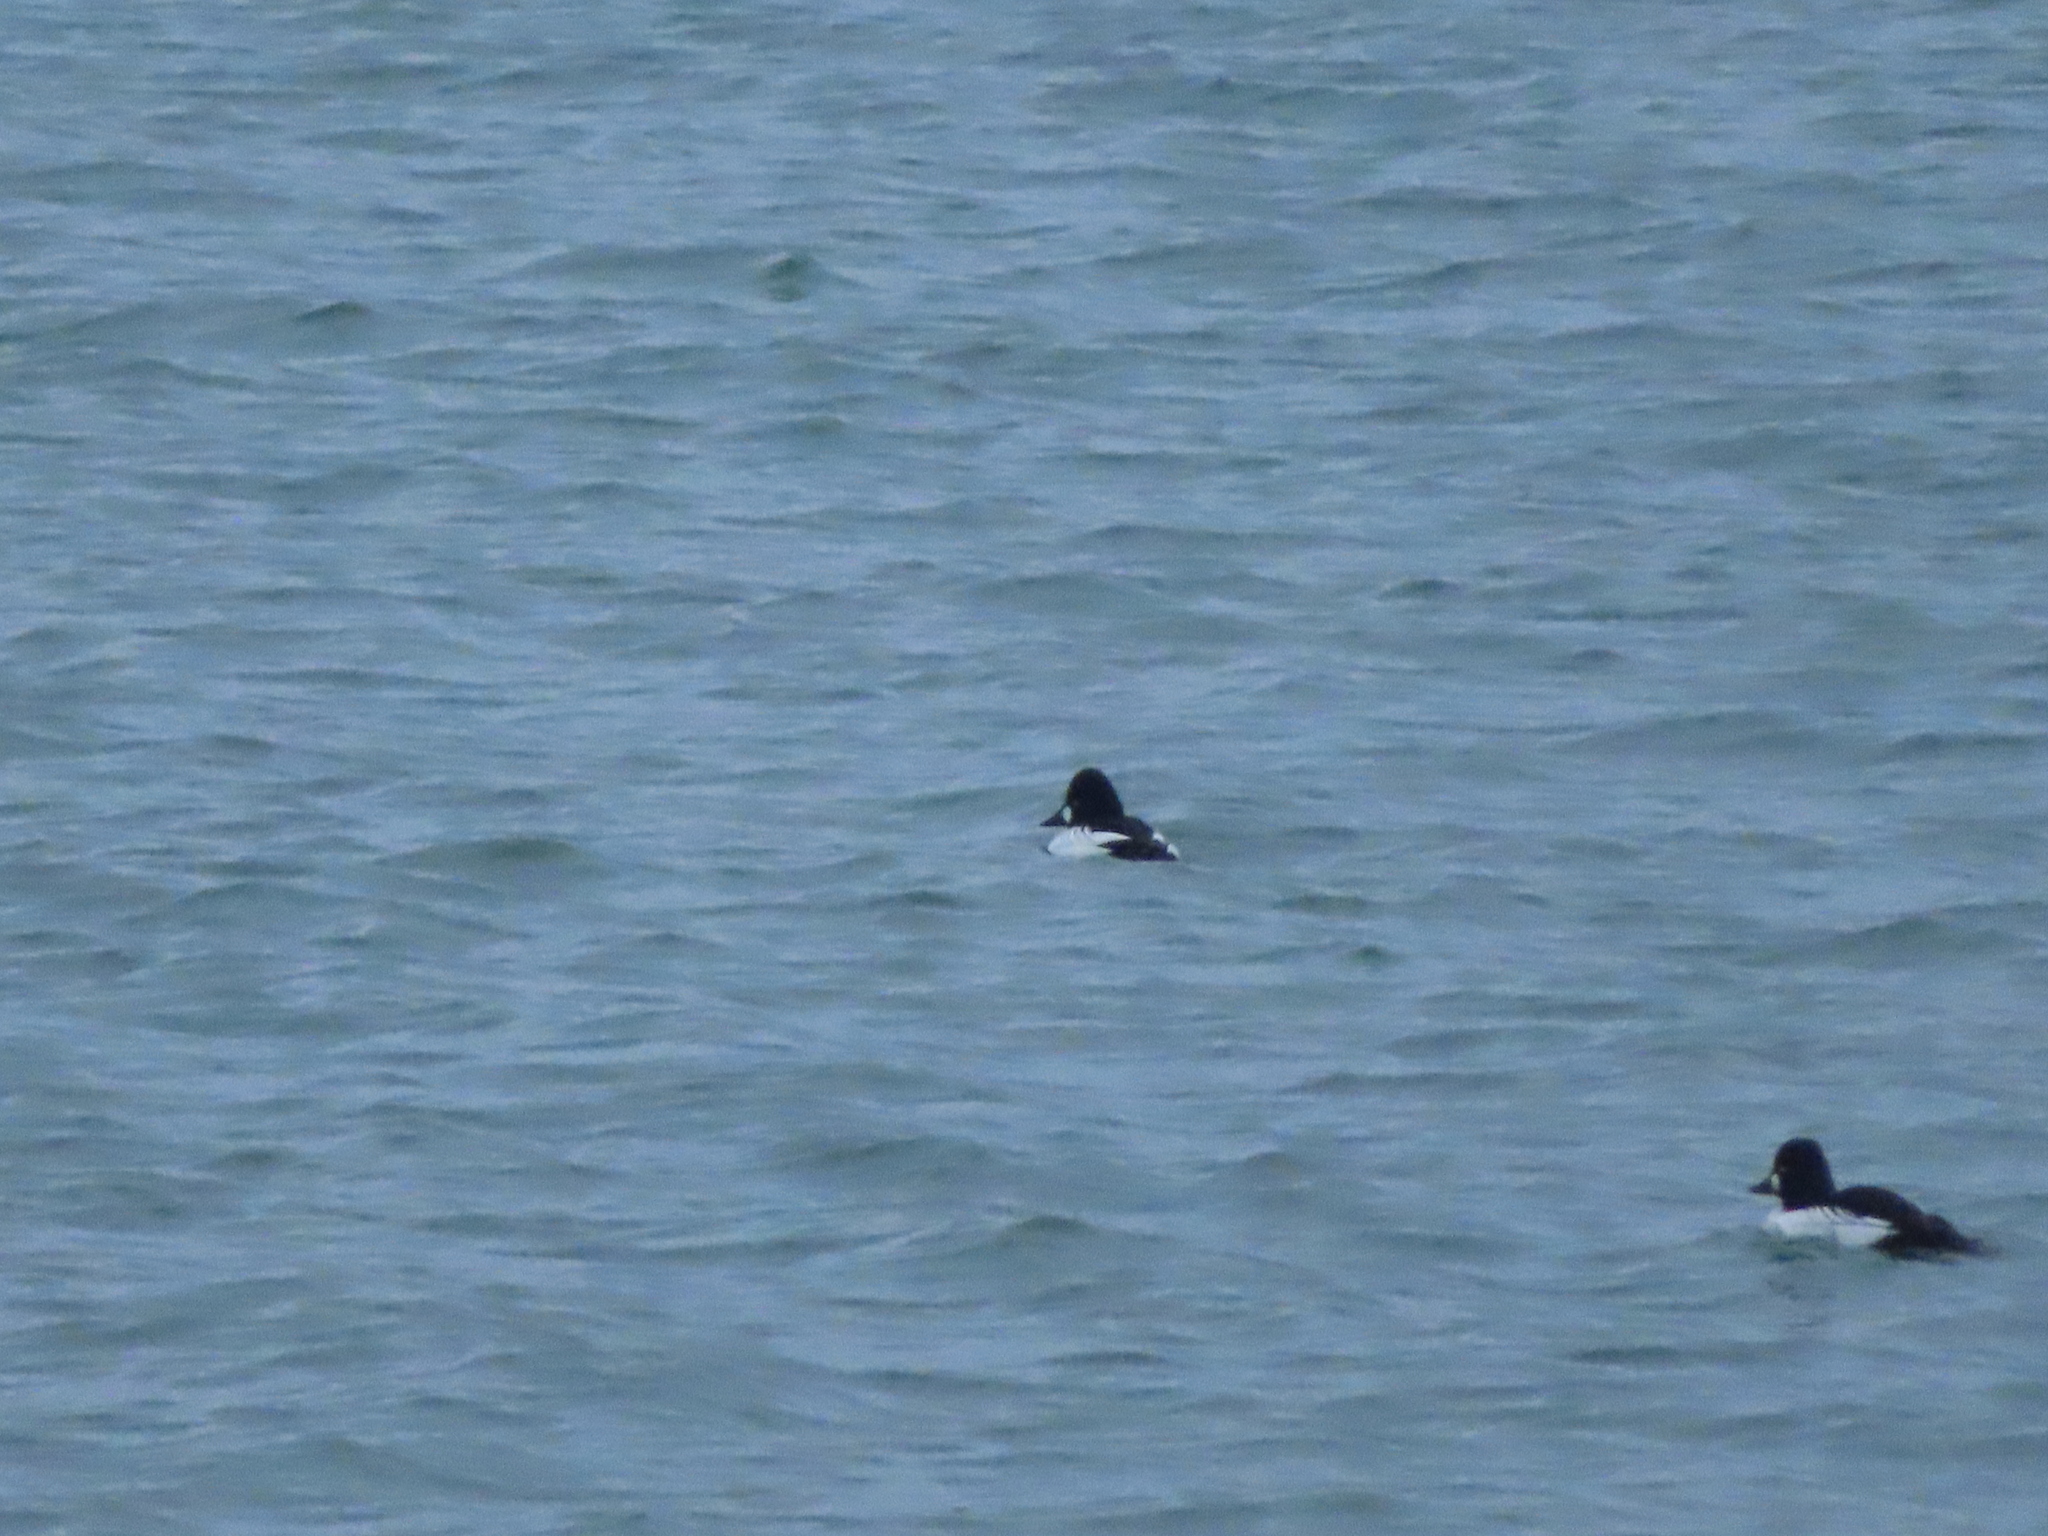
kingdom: Animalia
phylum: Chordata
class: Aves
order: Anseriformes
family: Anatidae
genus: Bucephala
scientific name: Bucephala clangula
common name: Common goldeneye
